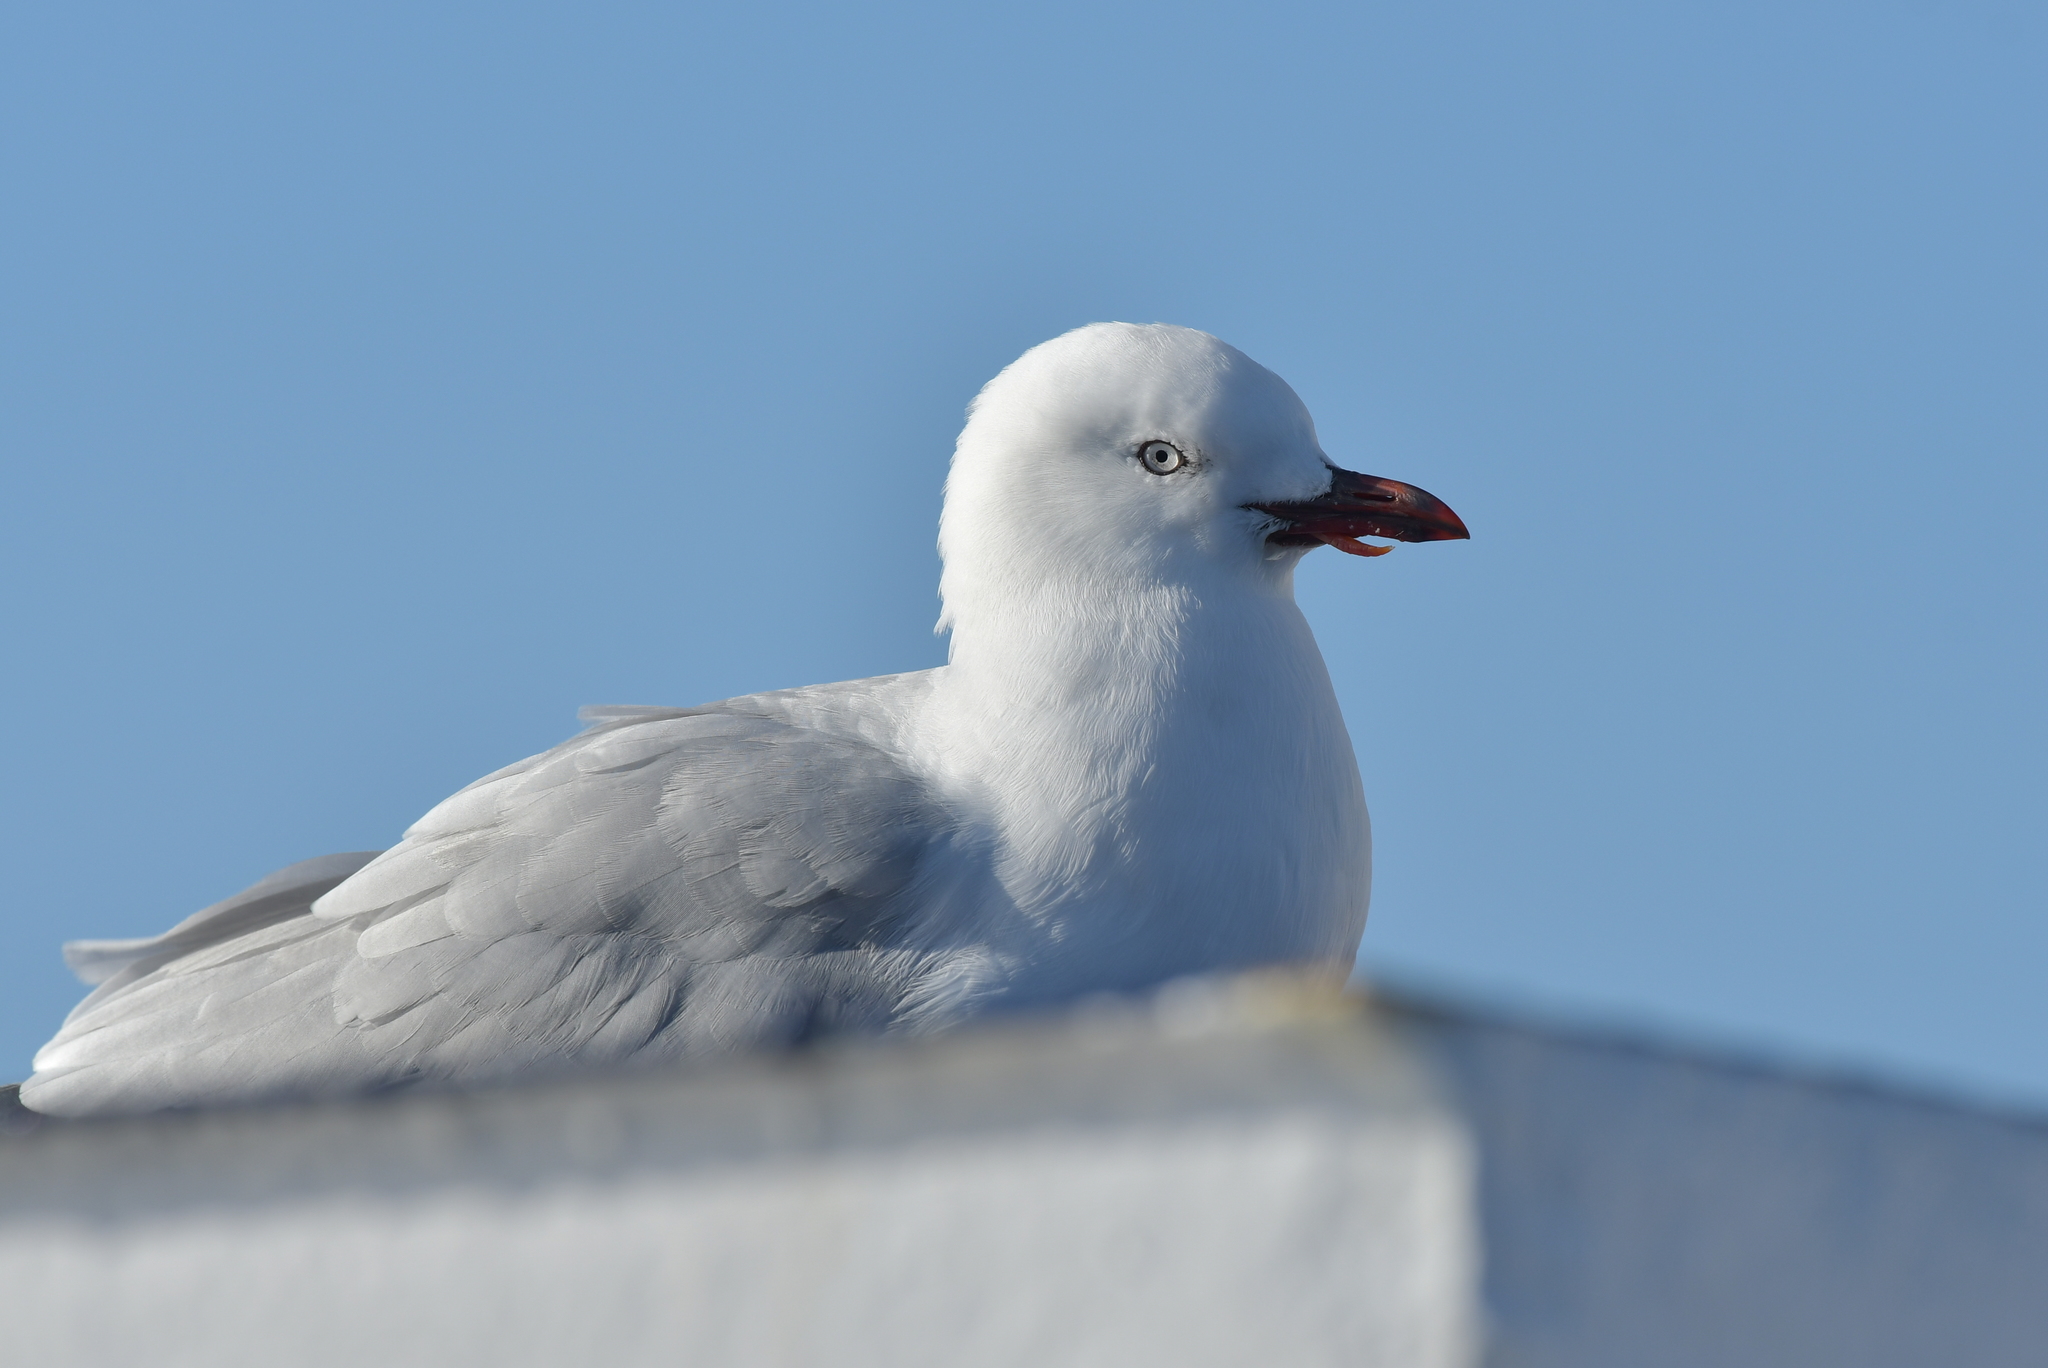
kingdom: Animalia
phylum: Chordata
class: Aves
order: Charadriiformes
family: Laridae
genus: Chroicocephalus
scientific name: Chroicocephalus novaehollandiae
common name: Silver gull
